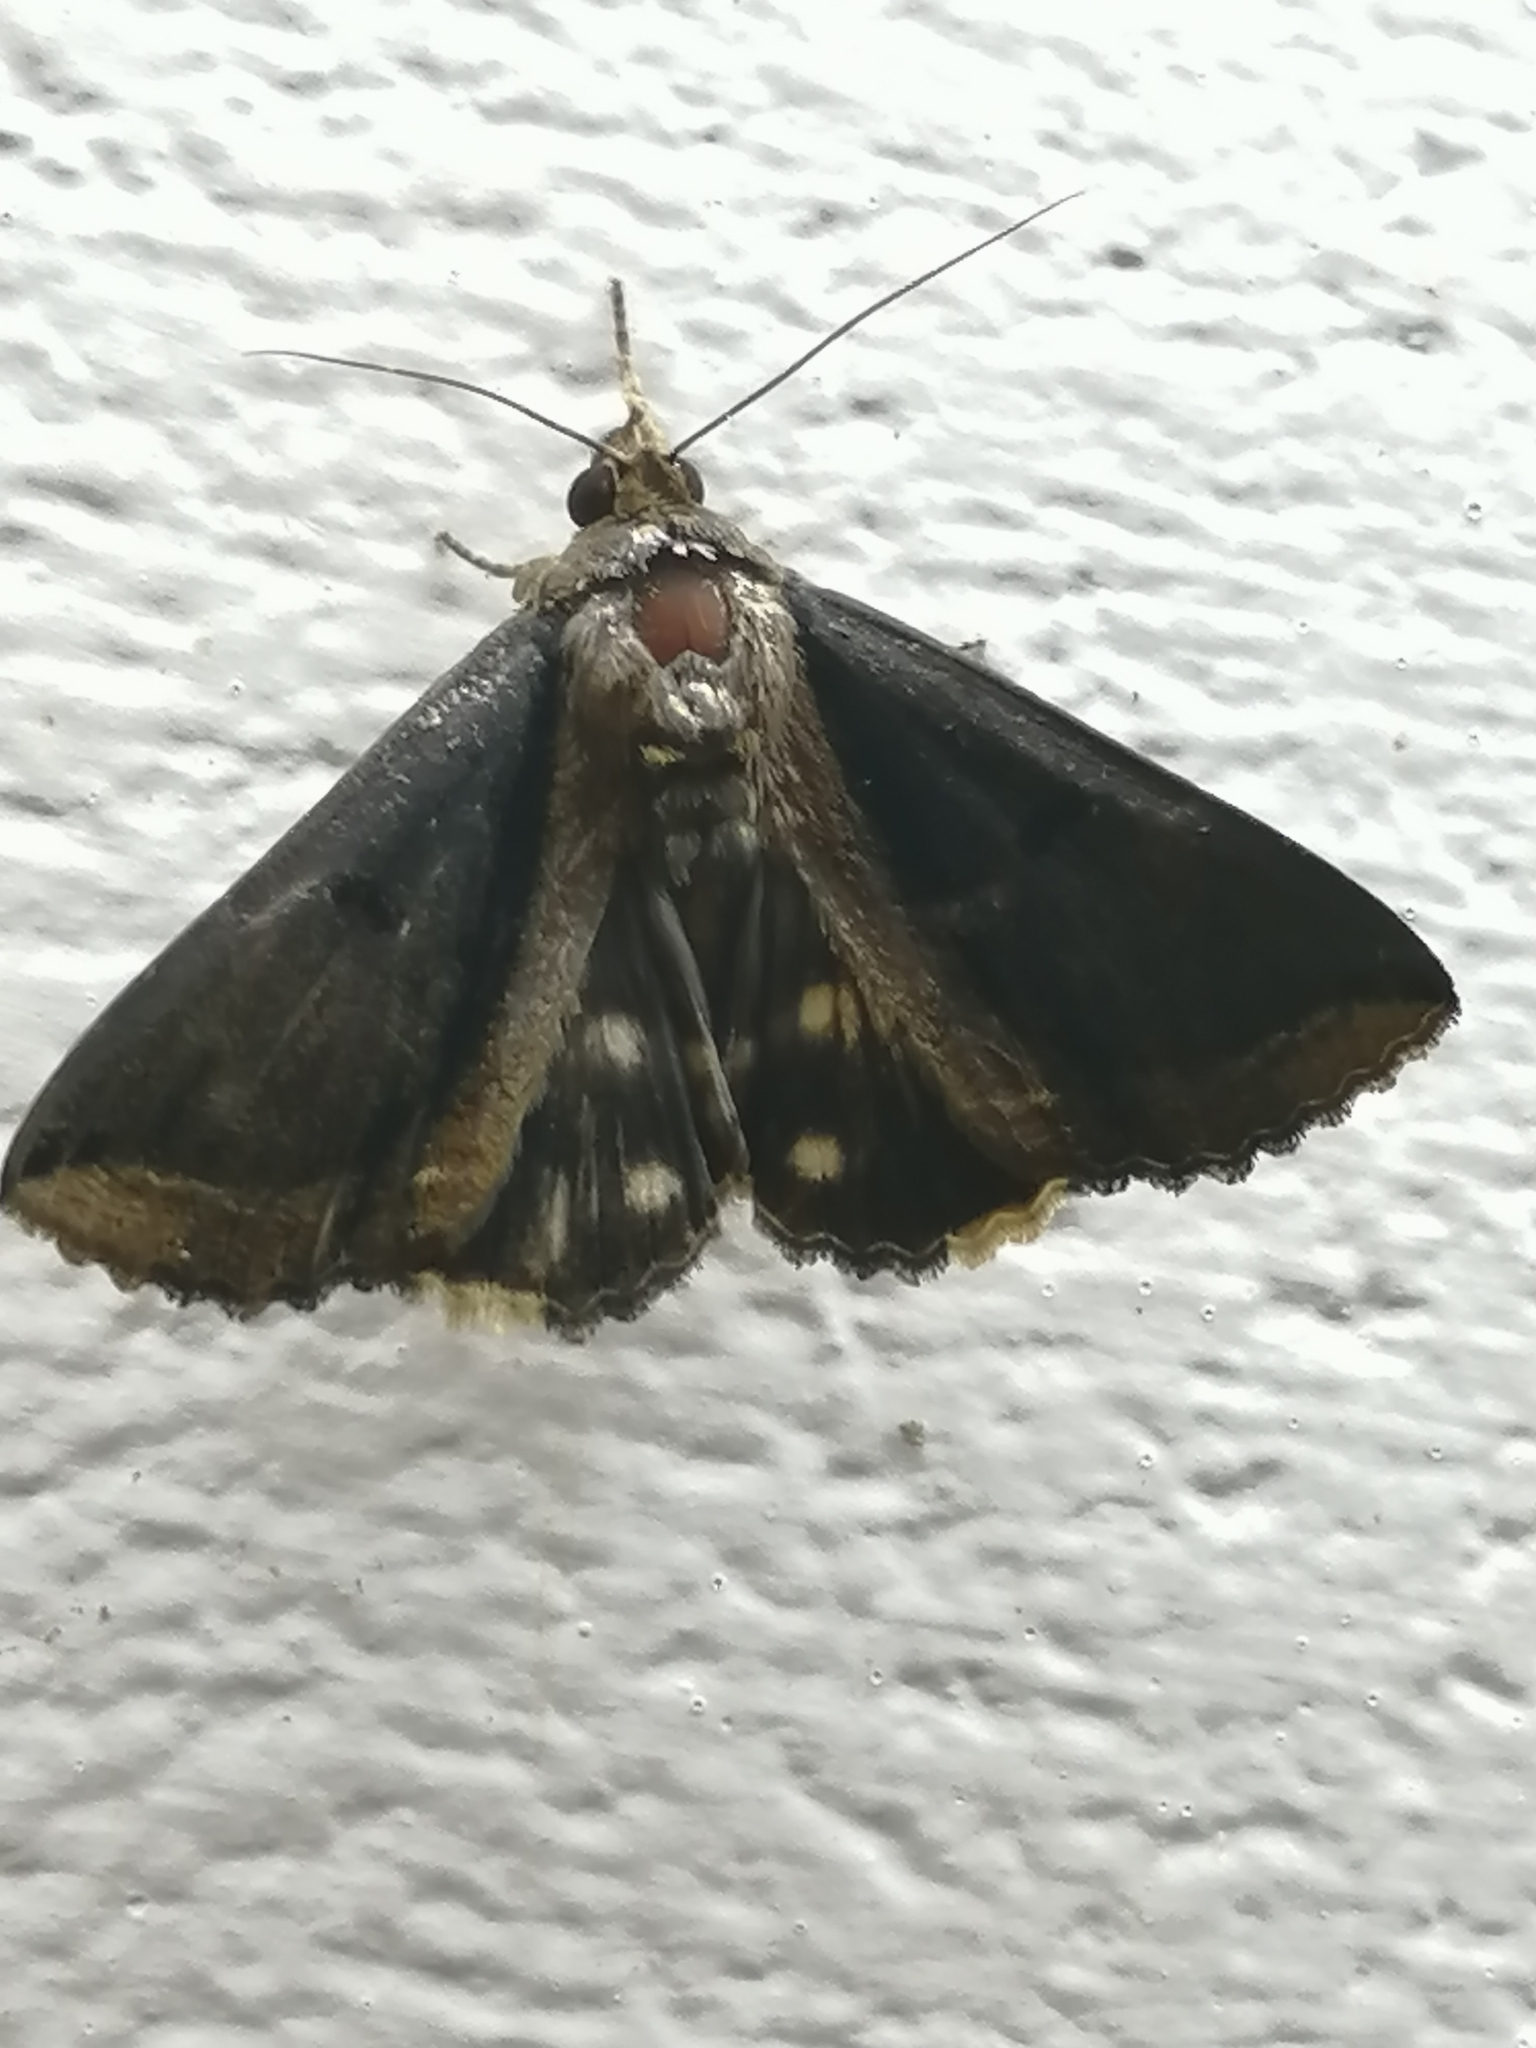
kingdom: Animalia
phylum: Arthropoda
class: Insecta
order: Lepidoptera
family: Erebidae
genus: Ercheia
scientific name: Ercheia cyllaria
